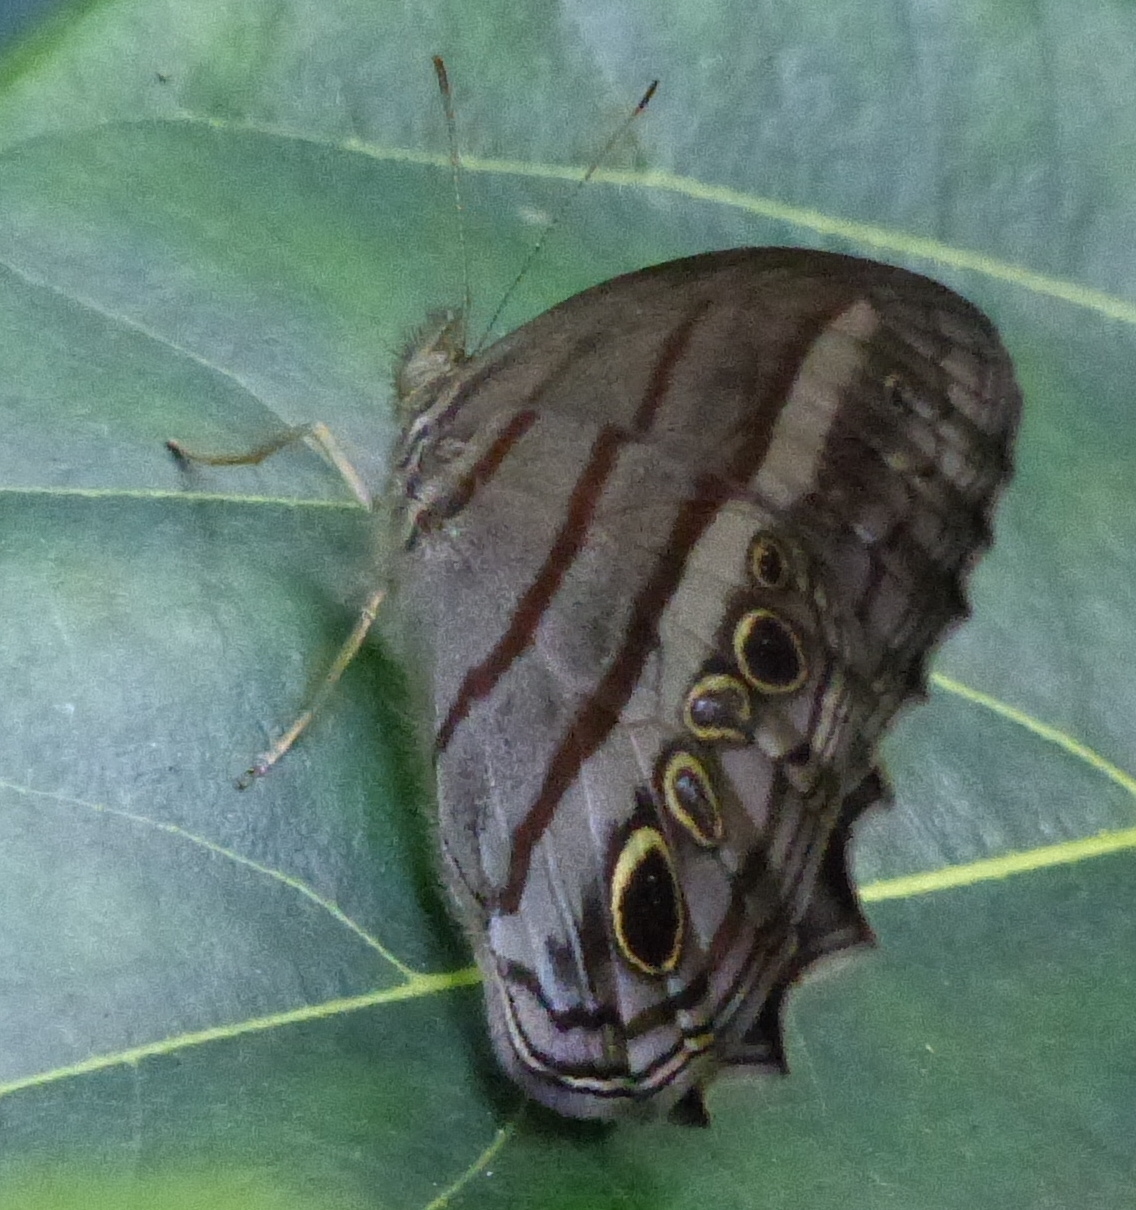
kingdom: Animalia
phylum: Arthropoda
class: Insecta
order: Lepidoptera
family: Nymphalidae
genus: Magneuptychia
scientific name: Magneuptychia libye
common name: Blue-gray satyr
